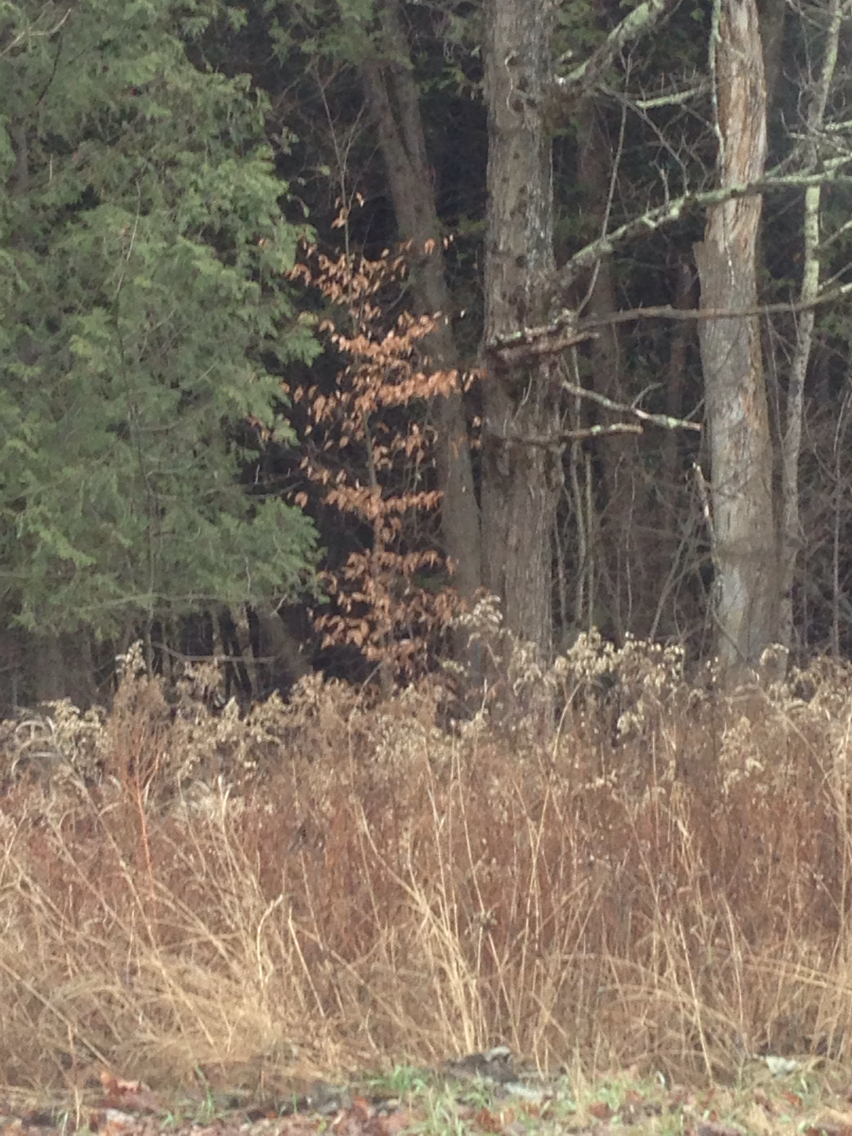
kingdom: Plantae
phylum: Tracheophyta
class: Magnoliopsida
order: Fagales
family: Fagaceae
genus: Fagus
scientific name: Fagus grandifolia
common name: American beech
